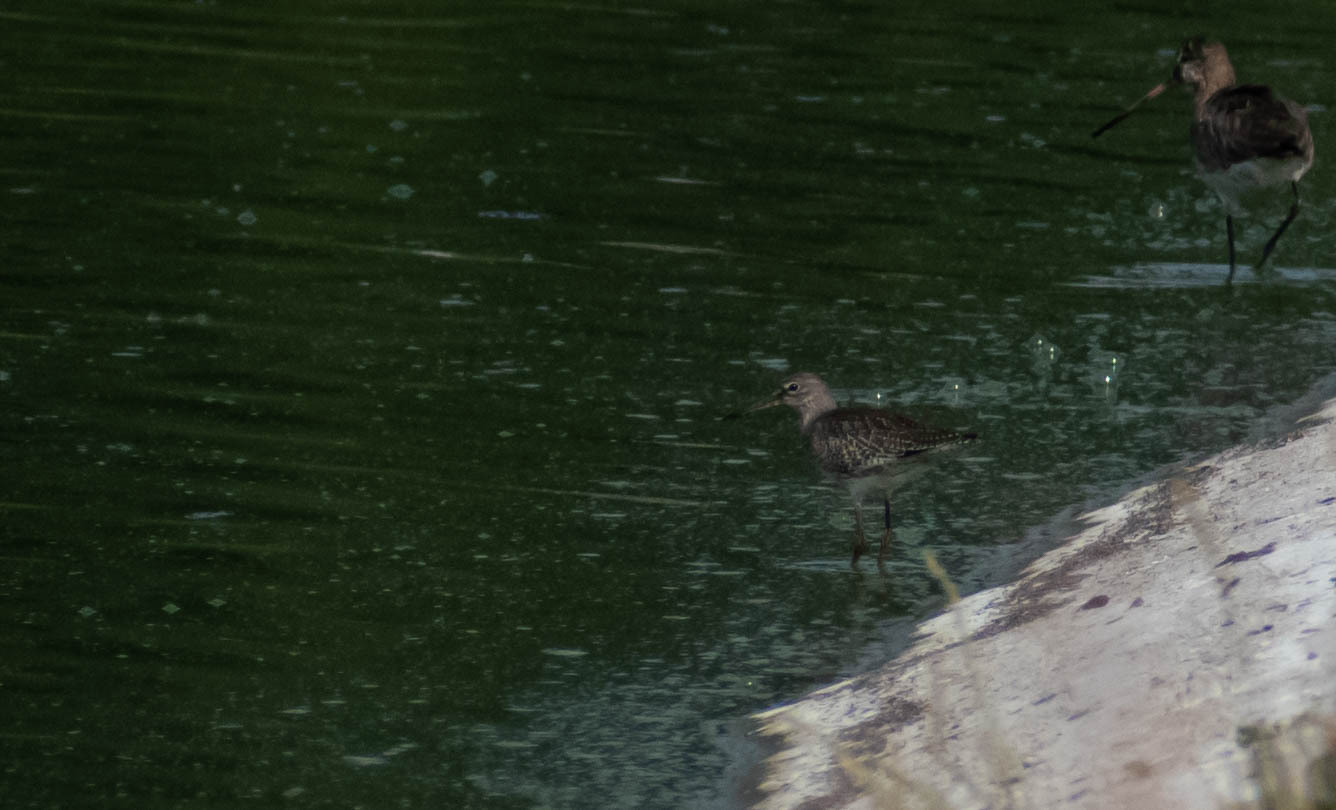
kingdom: Animalia
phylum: Chordata
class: Aves
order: Charadriiformes
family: Scolopacidae
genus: Tringa
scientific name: Tringa nebularia
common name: Common greenshank
